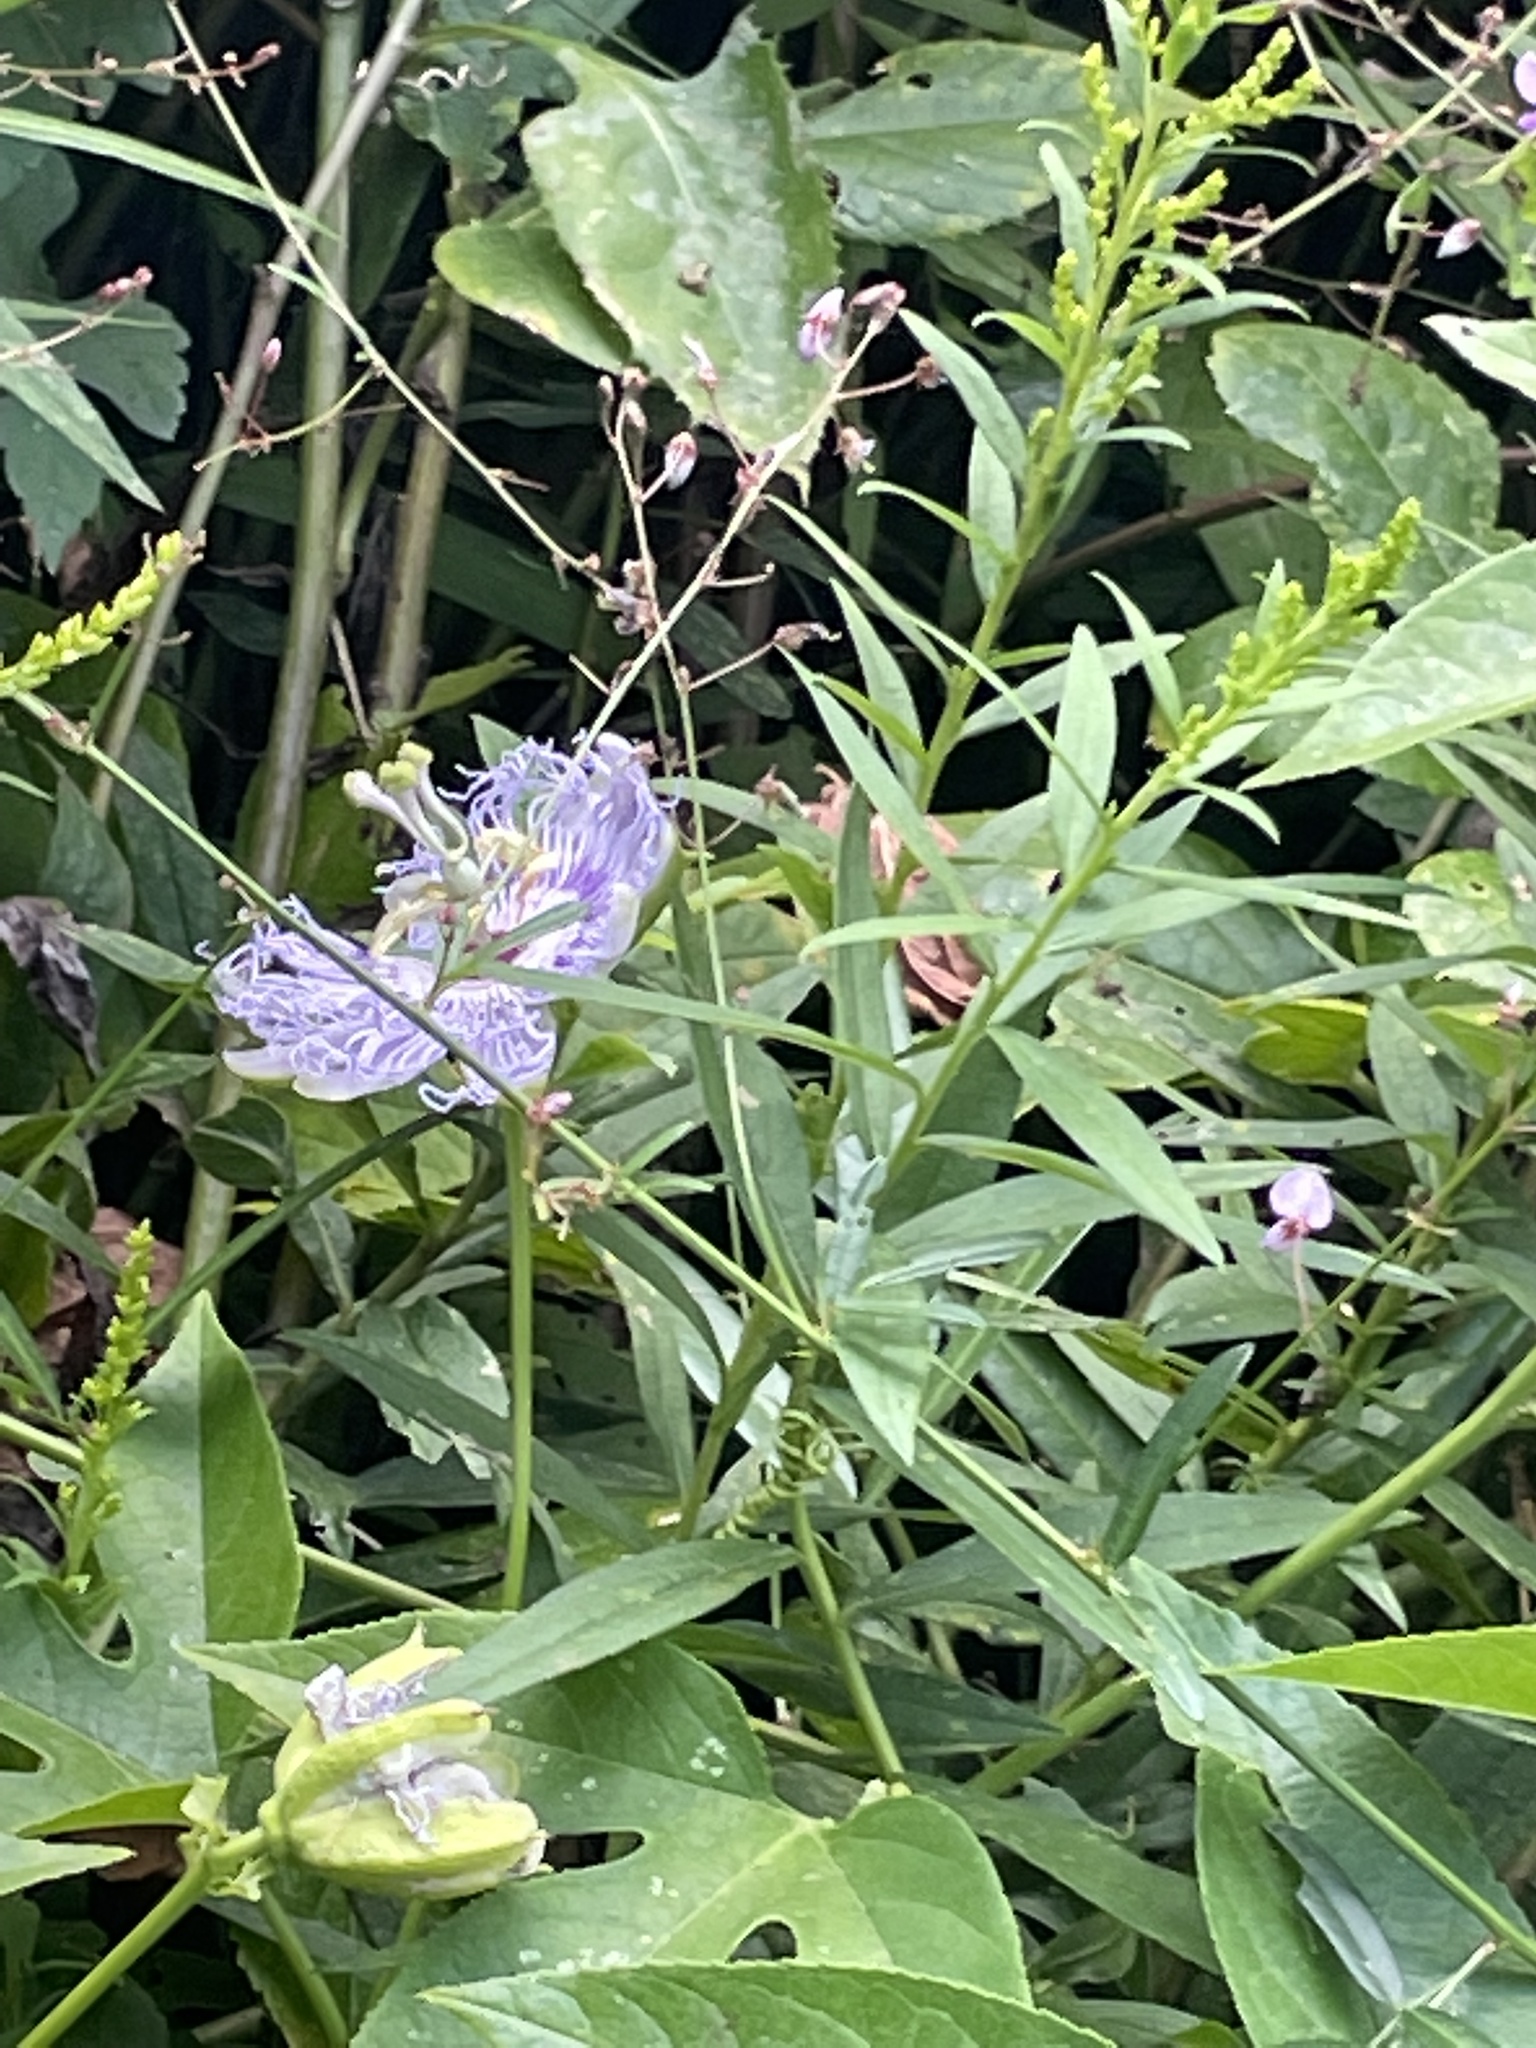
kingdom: Plantae
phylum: Tracheophyta
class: Magnoliopsida
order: Malpighiales
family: Passifloraceae
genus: Passiflora
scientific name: Passiflora incarnata
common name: Apricot-vine
